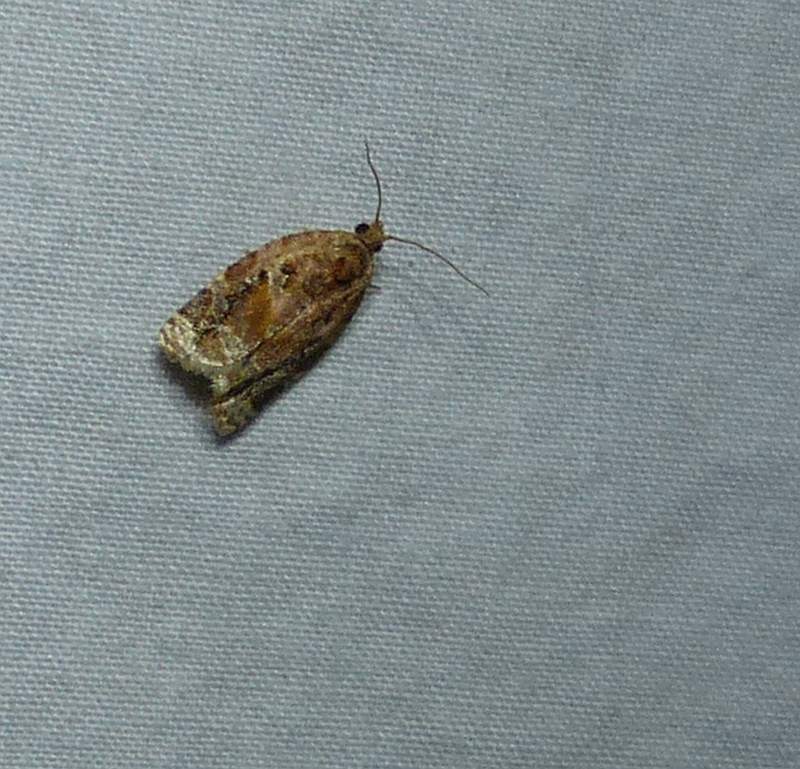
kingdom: Animalia
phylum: Arthropoda
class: Insecta
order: Lepidoptera
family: Tortricidae
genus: Argyrotaenia
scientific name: Argyrotaenia velutinana
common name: Red-banded leafroller moth
